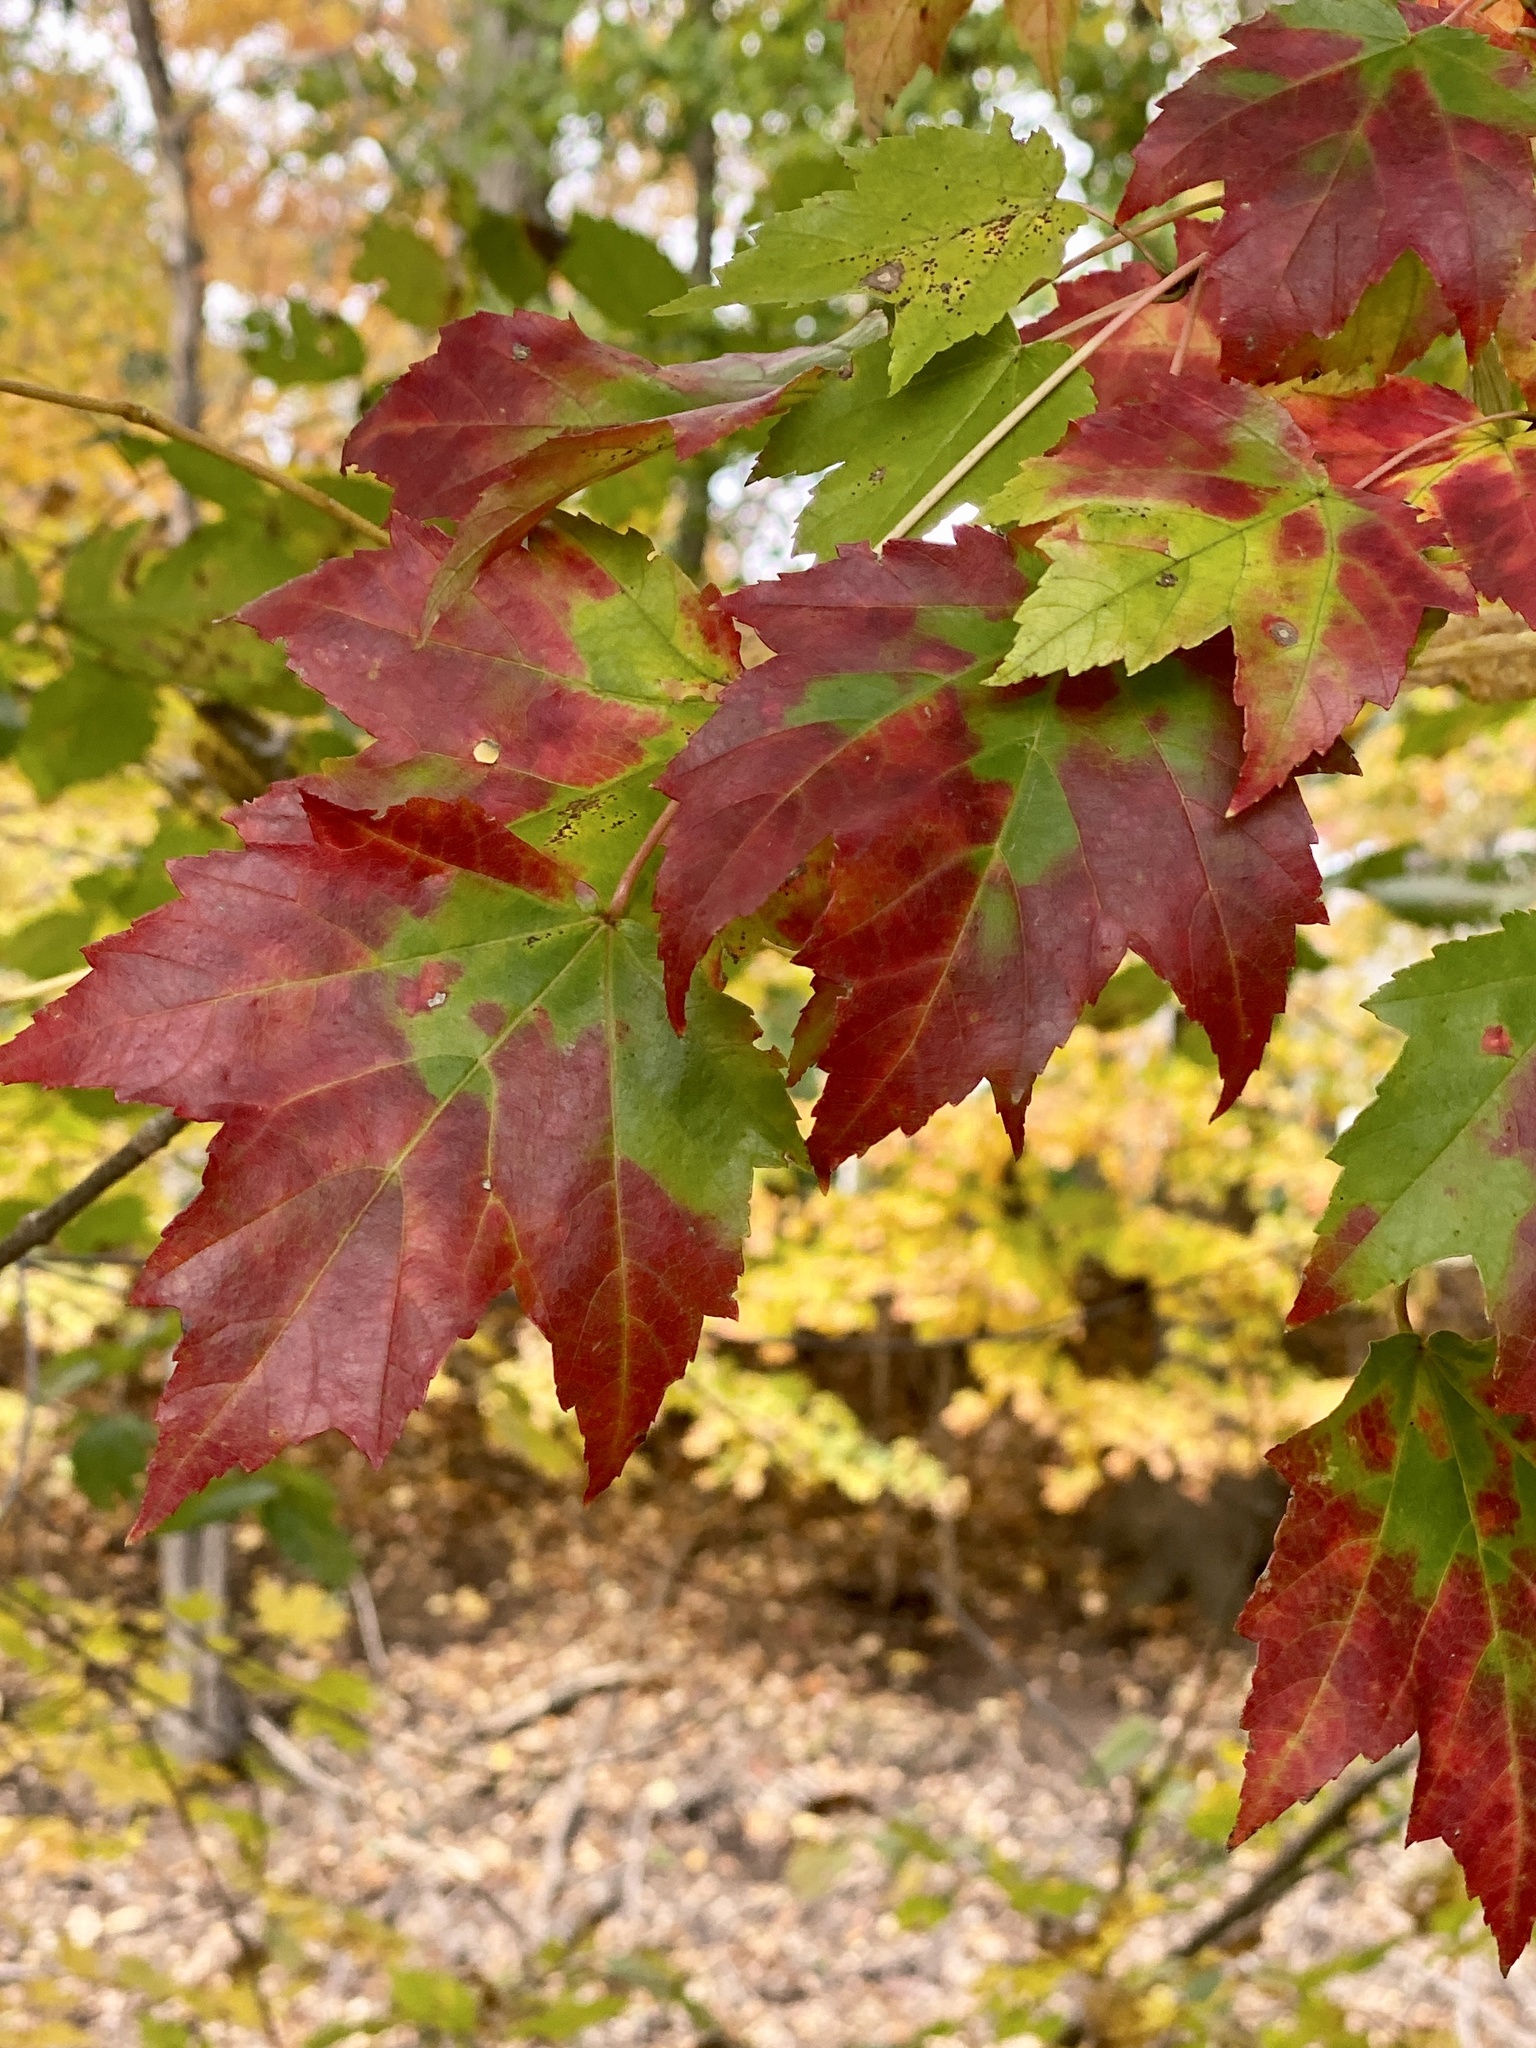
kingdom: Plantae
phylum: Tracheophyta
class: Magnoliopsida
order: Sapindales
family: Sapindaceae
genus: Acer
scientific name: Acer rubrum
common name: Red maple
